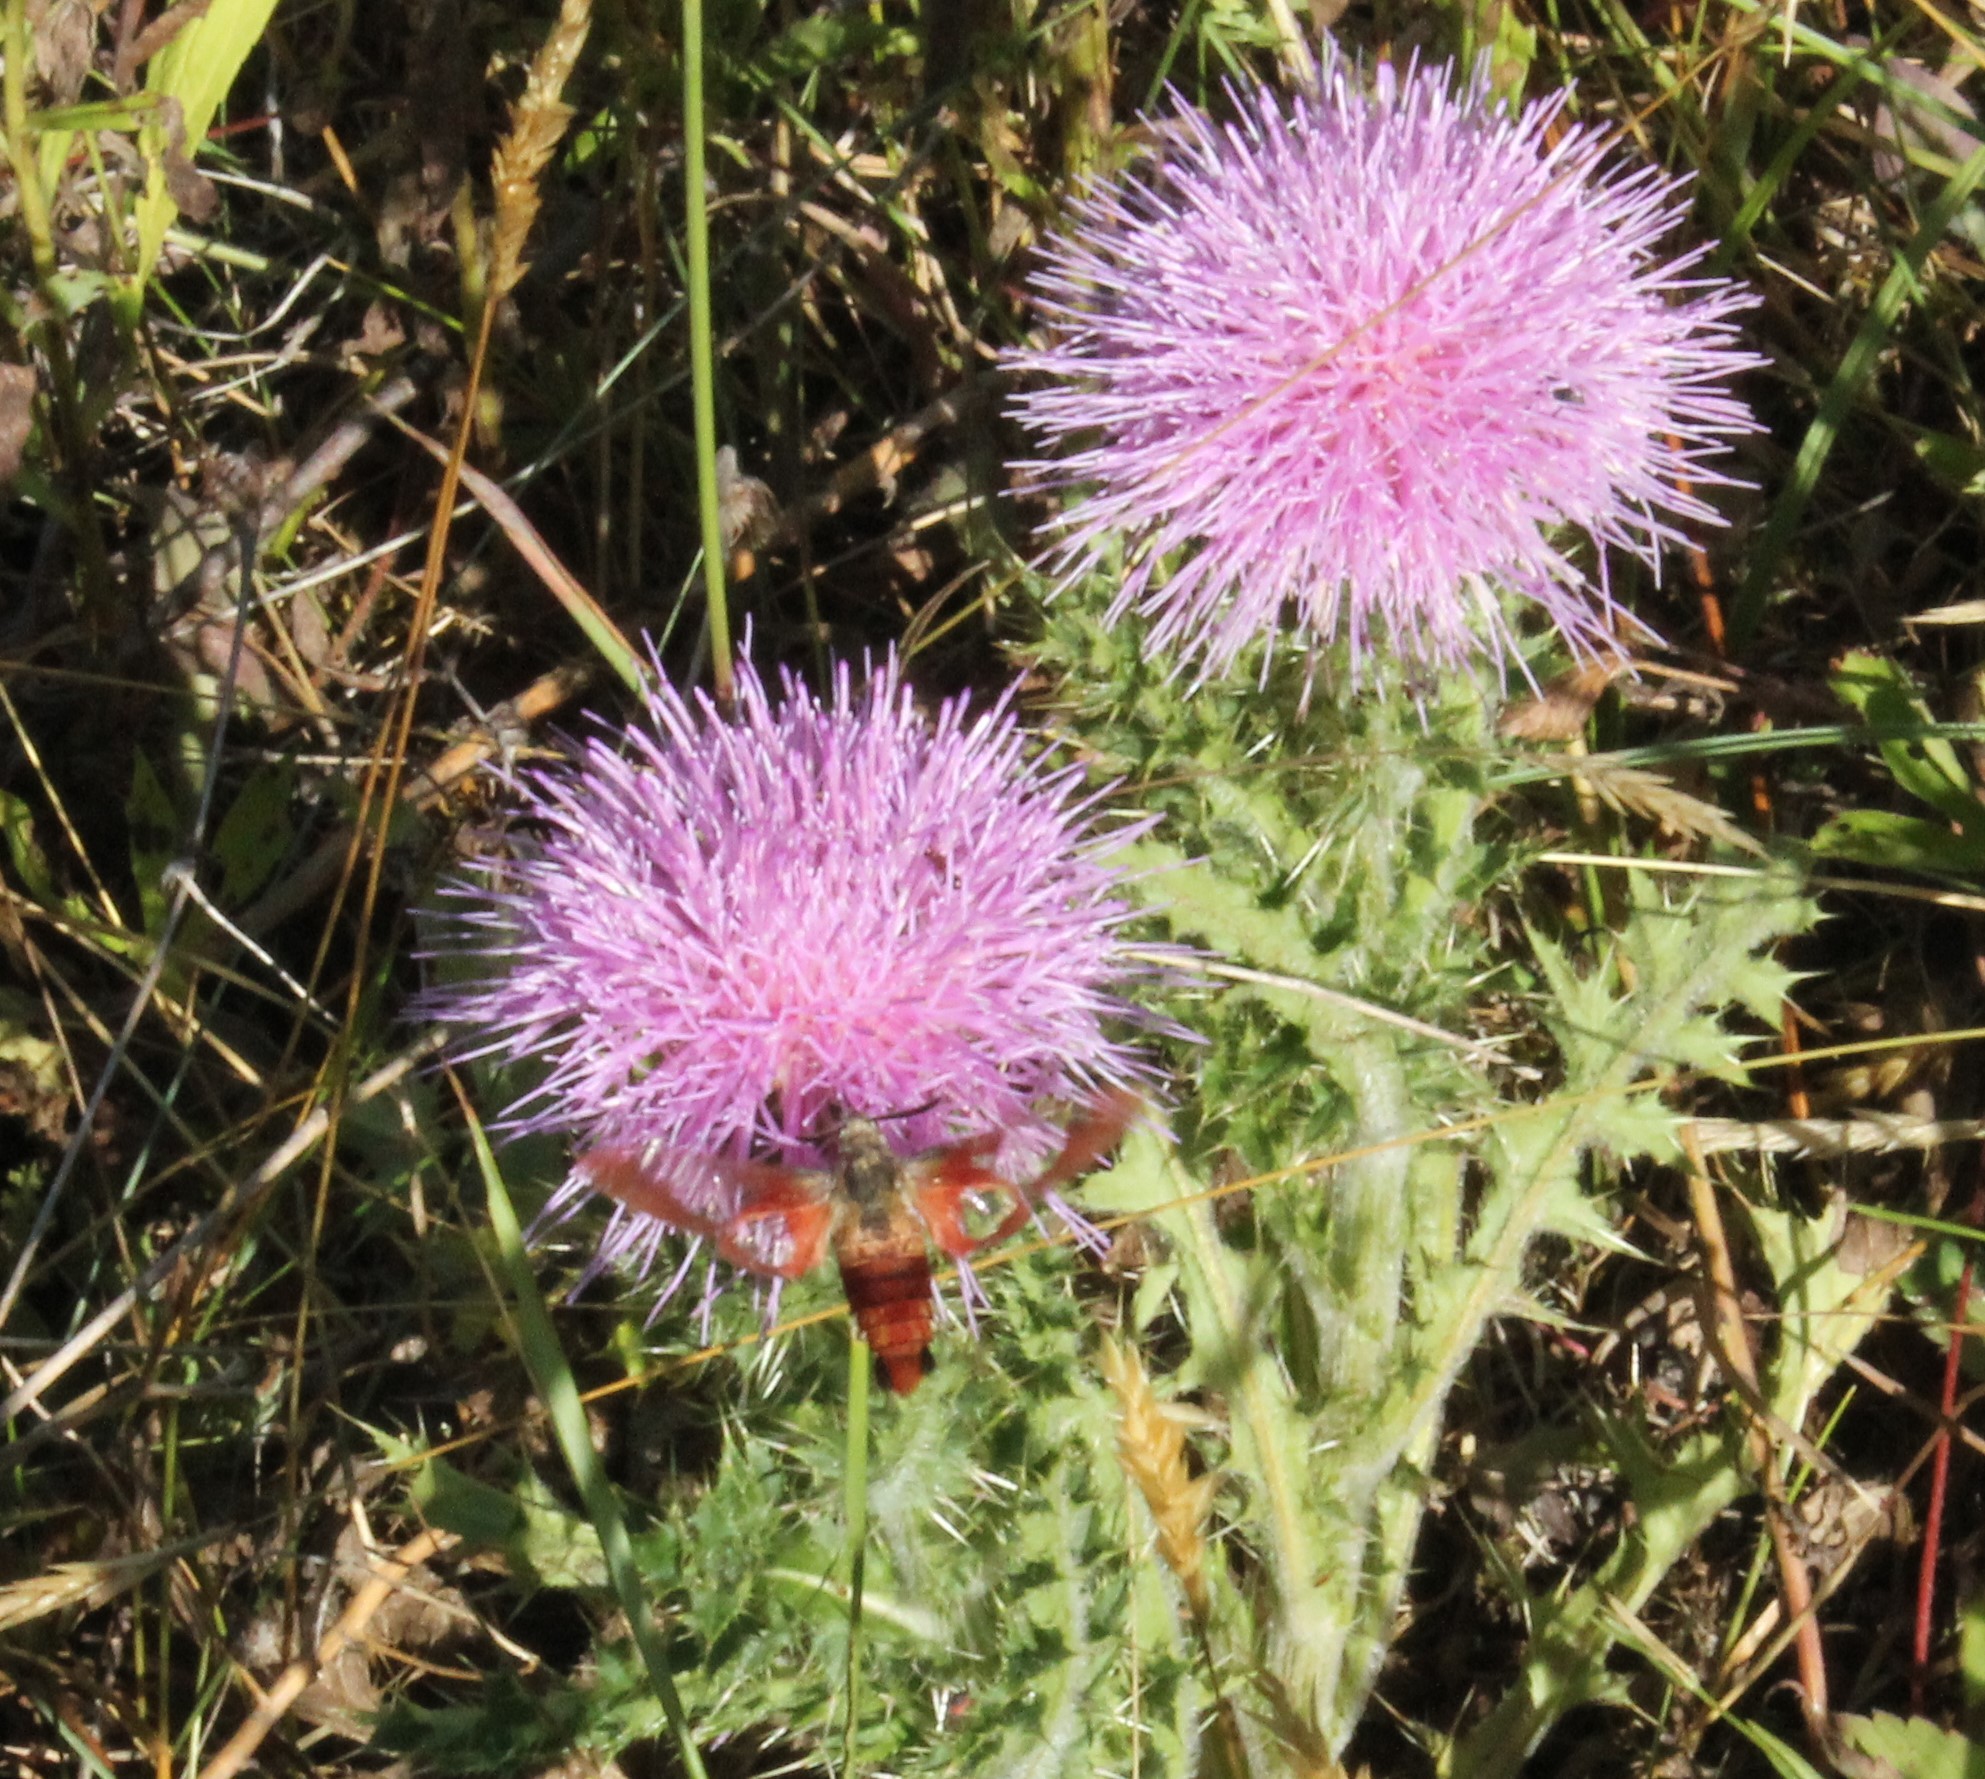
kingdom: Animalia
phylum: Arthropoda
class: Insecta
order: Lepidoptera
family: Sphingidae
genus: Hemaris
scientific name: Hemaris thysbe
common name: Common clear-wing
